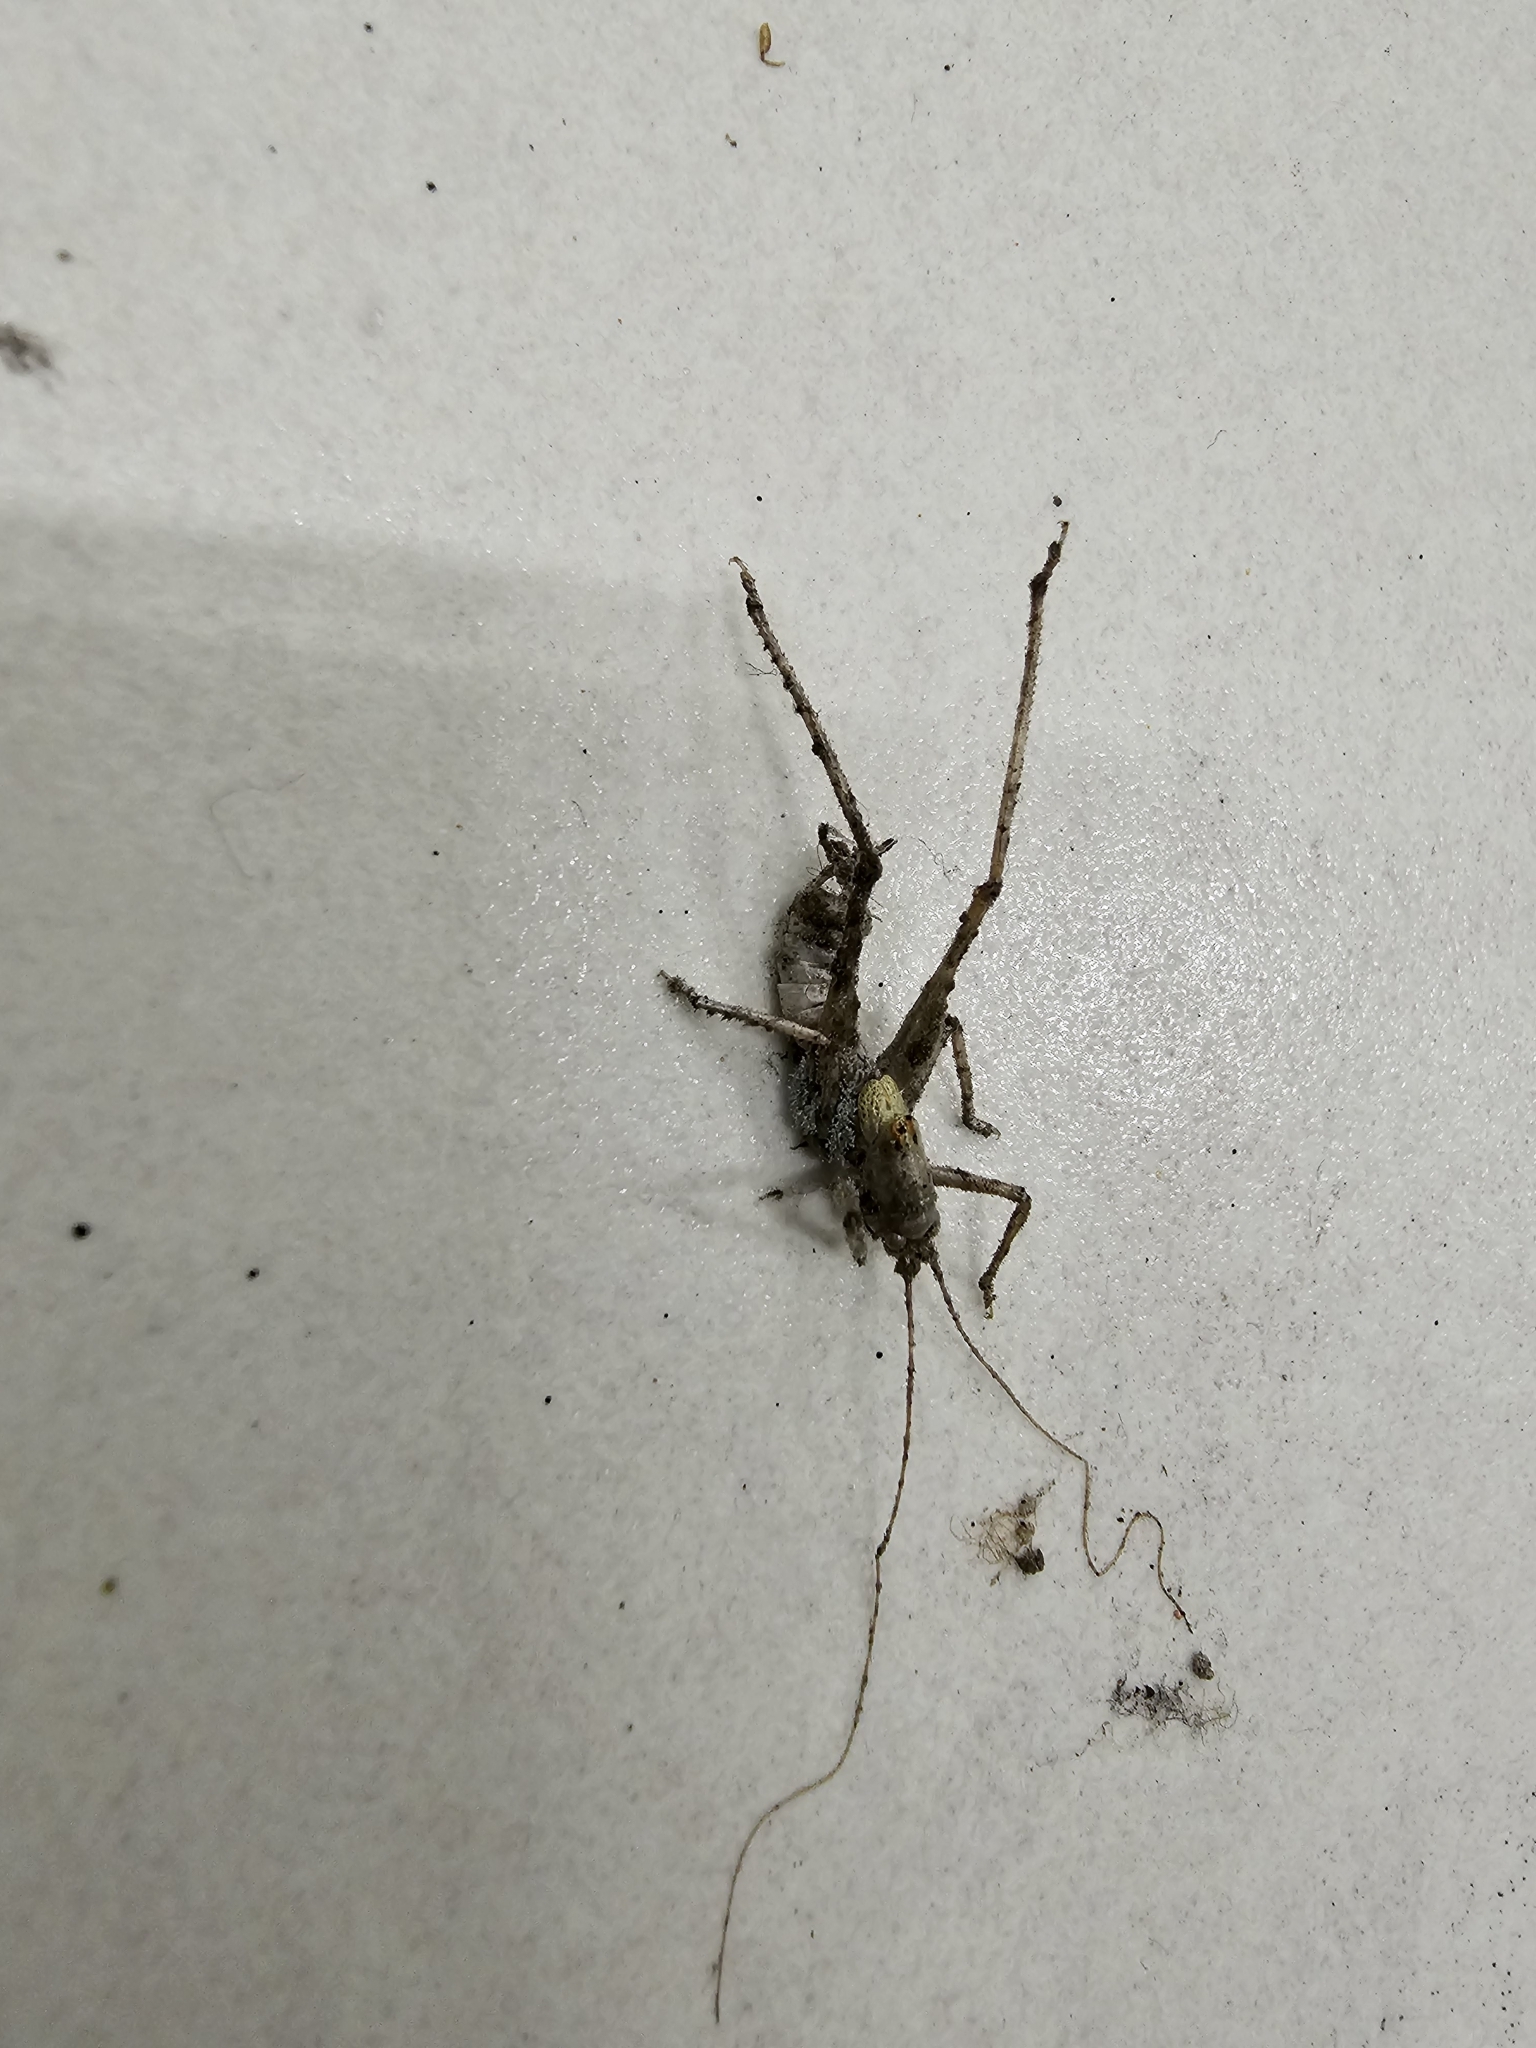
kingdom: Animalia
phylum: Arthropoda
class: Insecta
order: Orthoptera
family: Tettigoniidae
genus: Meconema
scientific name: Meconema meridionale
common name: Southern oak bush-cricket
